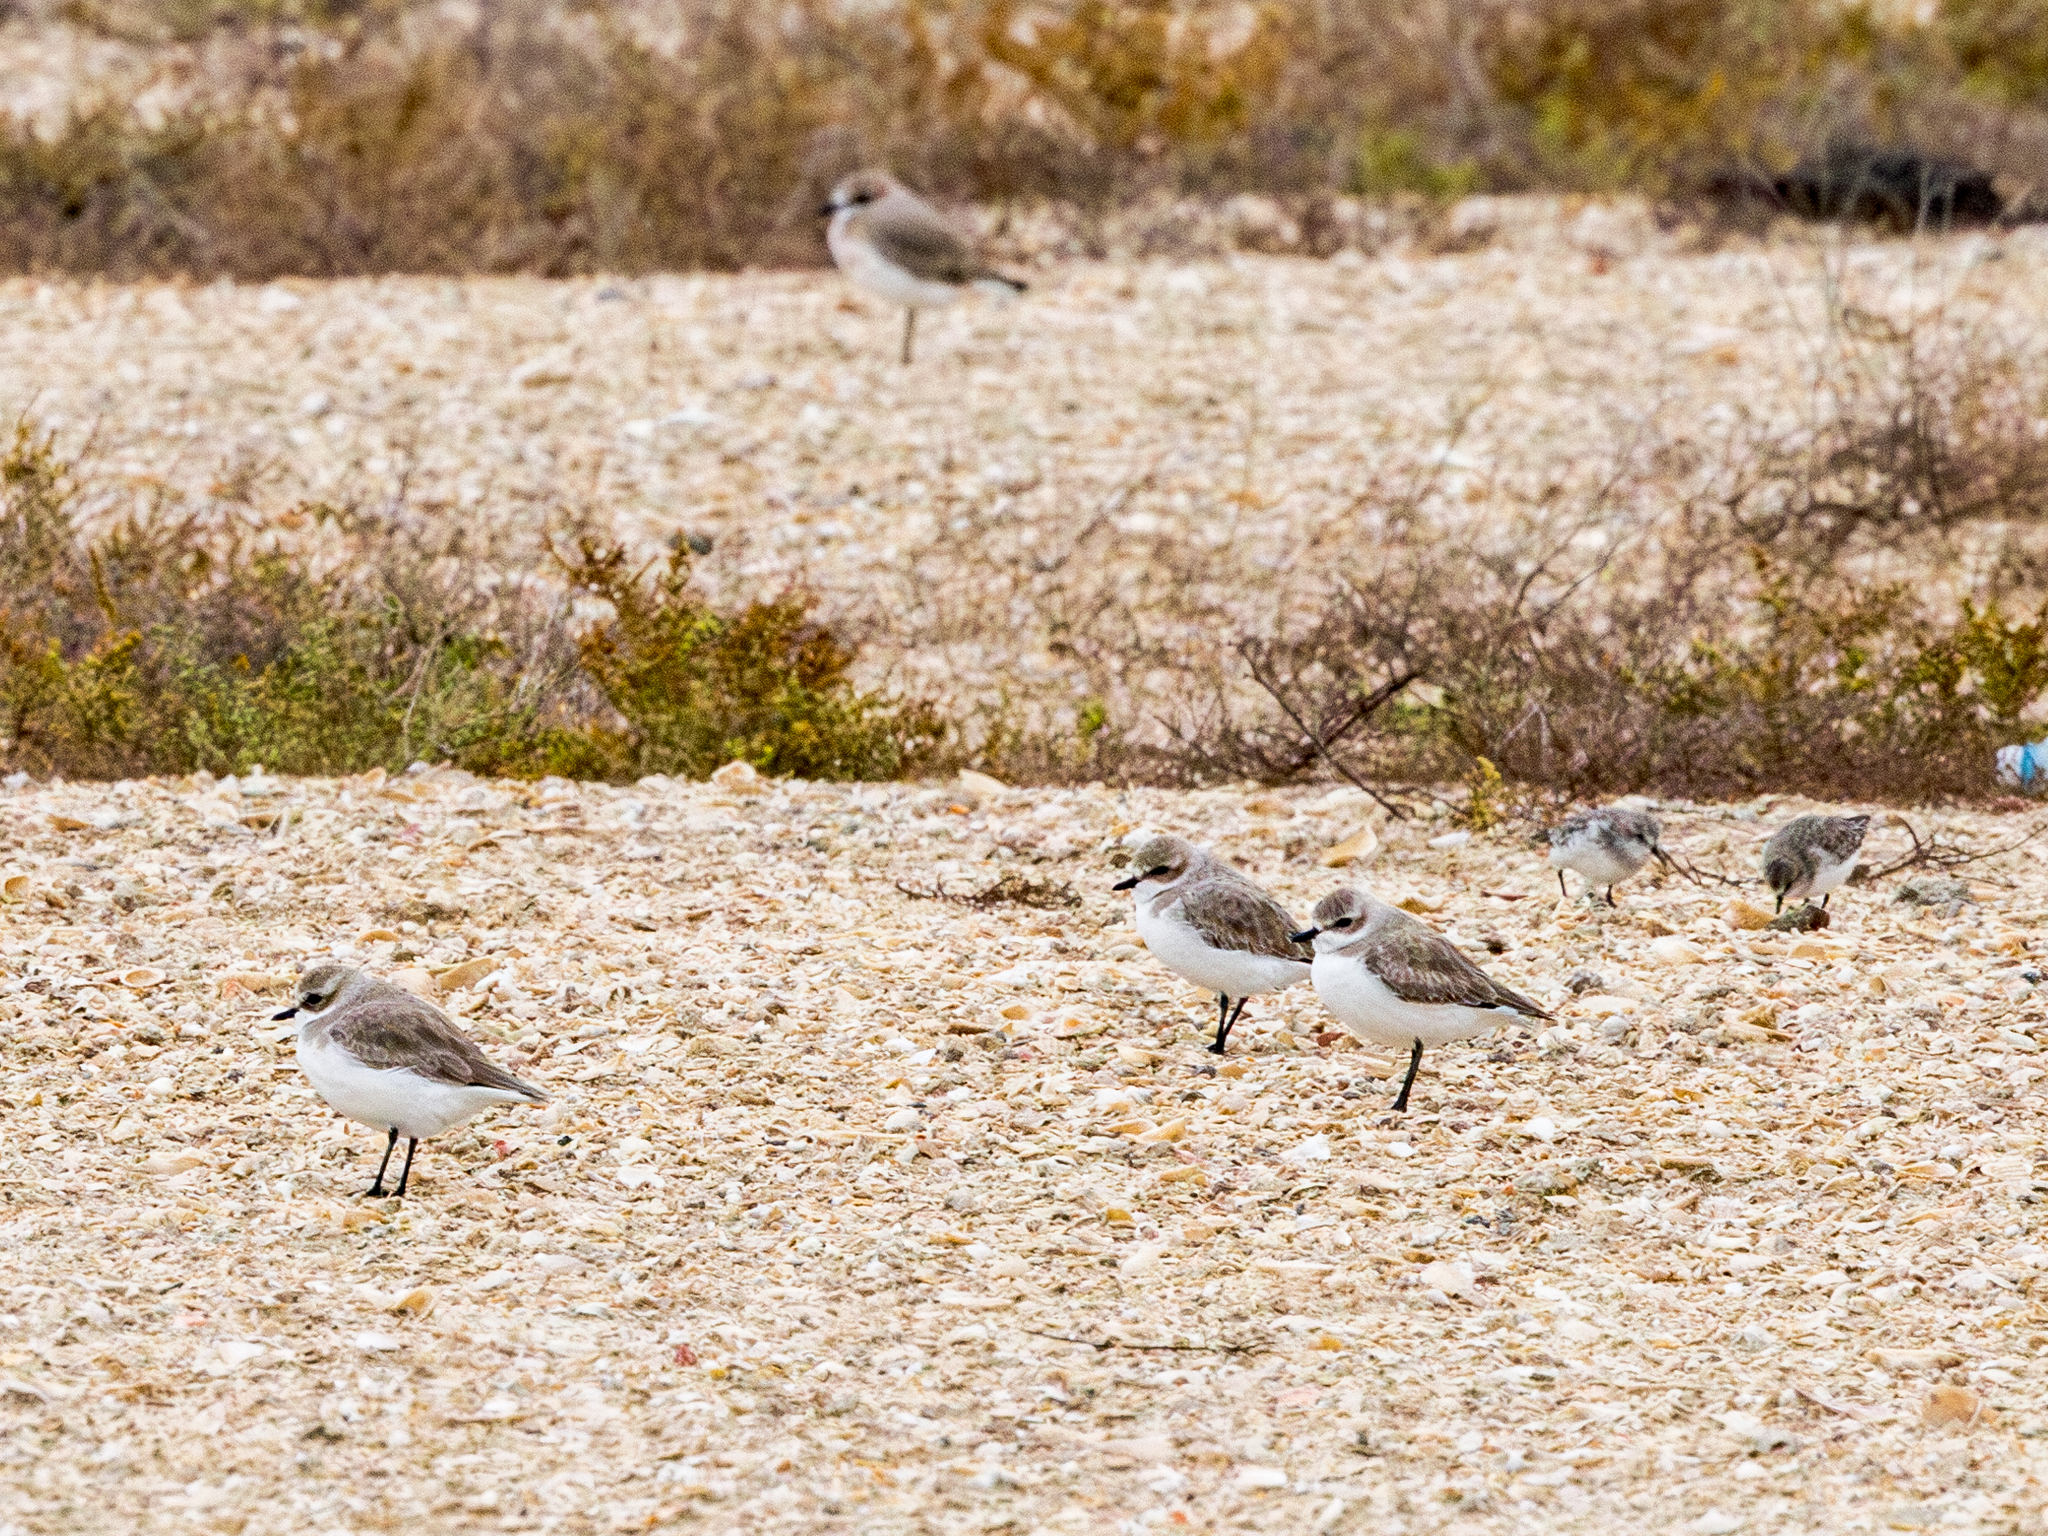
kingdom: Animalia
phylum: Chordata
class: Aves
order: Charadriiformes
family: Charadriidae
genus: Anarhynchus
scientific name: Anarhynchus
